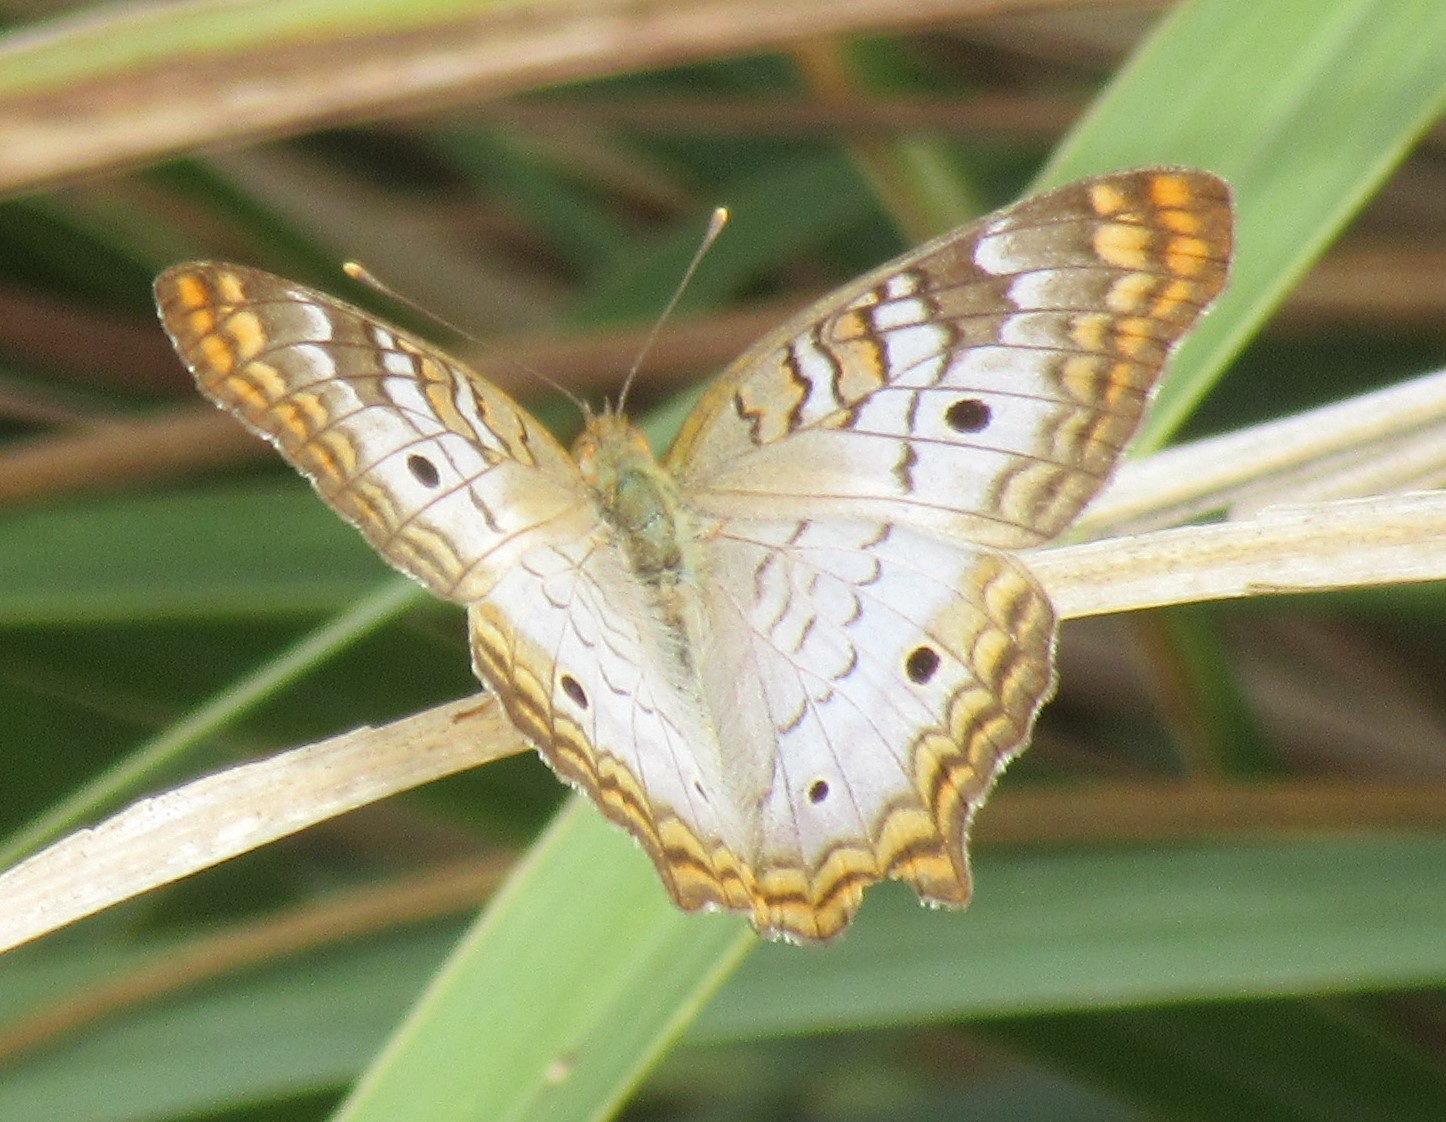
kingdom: Animalia
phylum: Arthropoda
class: Insecta
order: Lepidoptera
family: Nymphalidae
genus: Anartia
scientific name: Anartia jatrophae
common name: White peacock
